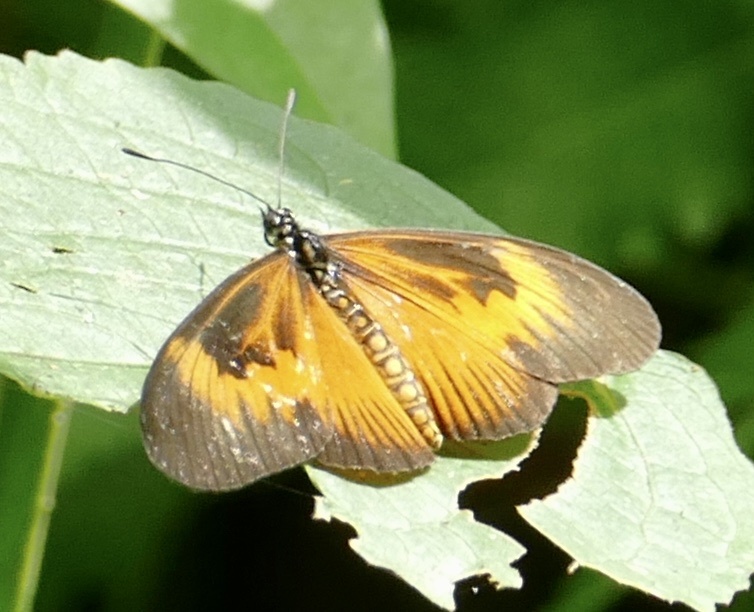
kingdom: Animalia
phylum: Arthropoda
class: Insecta
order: Lepidoptera
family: Nymphalidae
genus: Acraea
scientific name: Acraea Telchinia alciope
